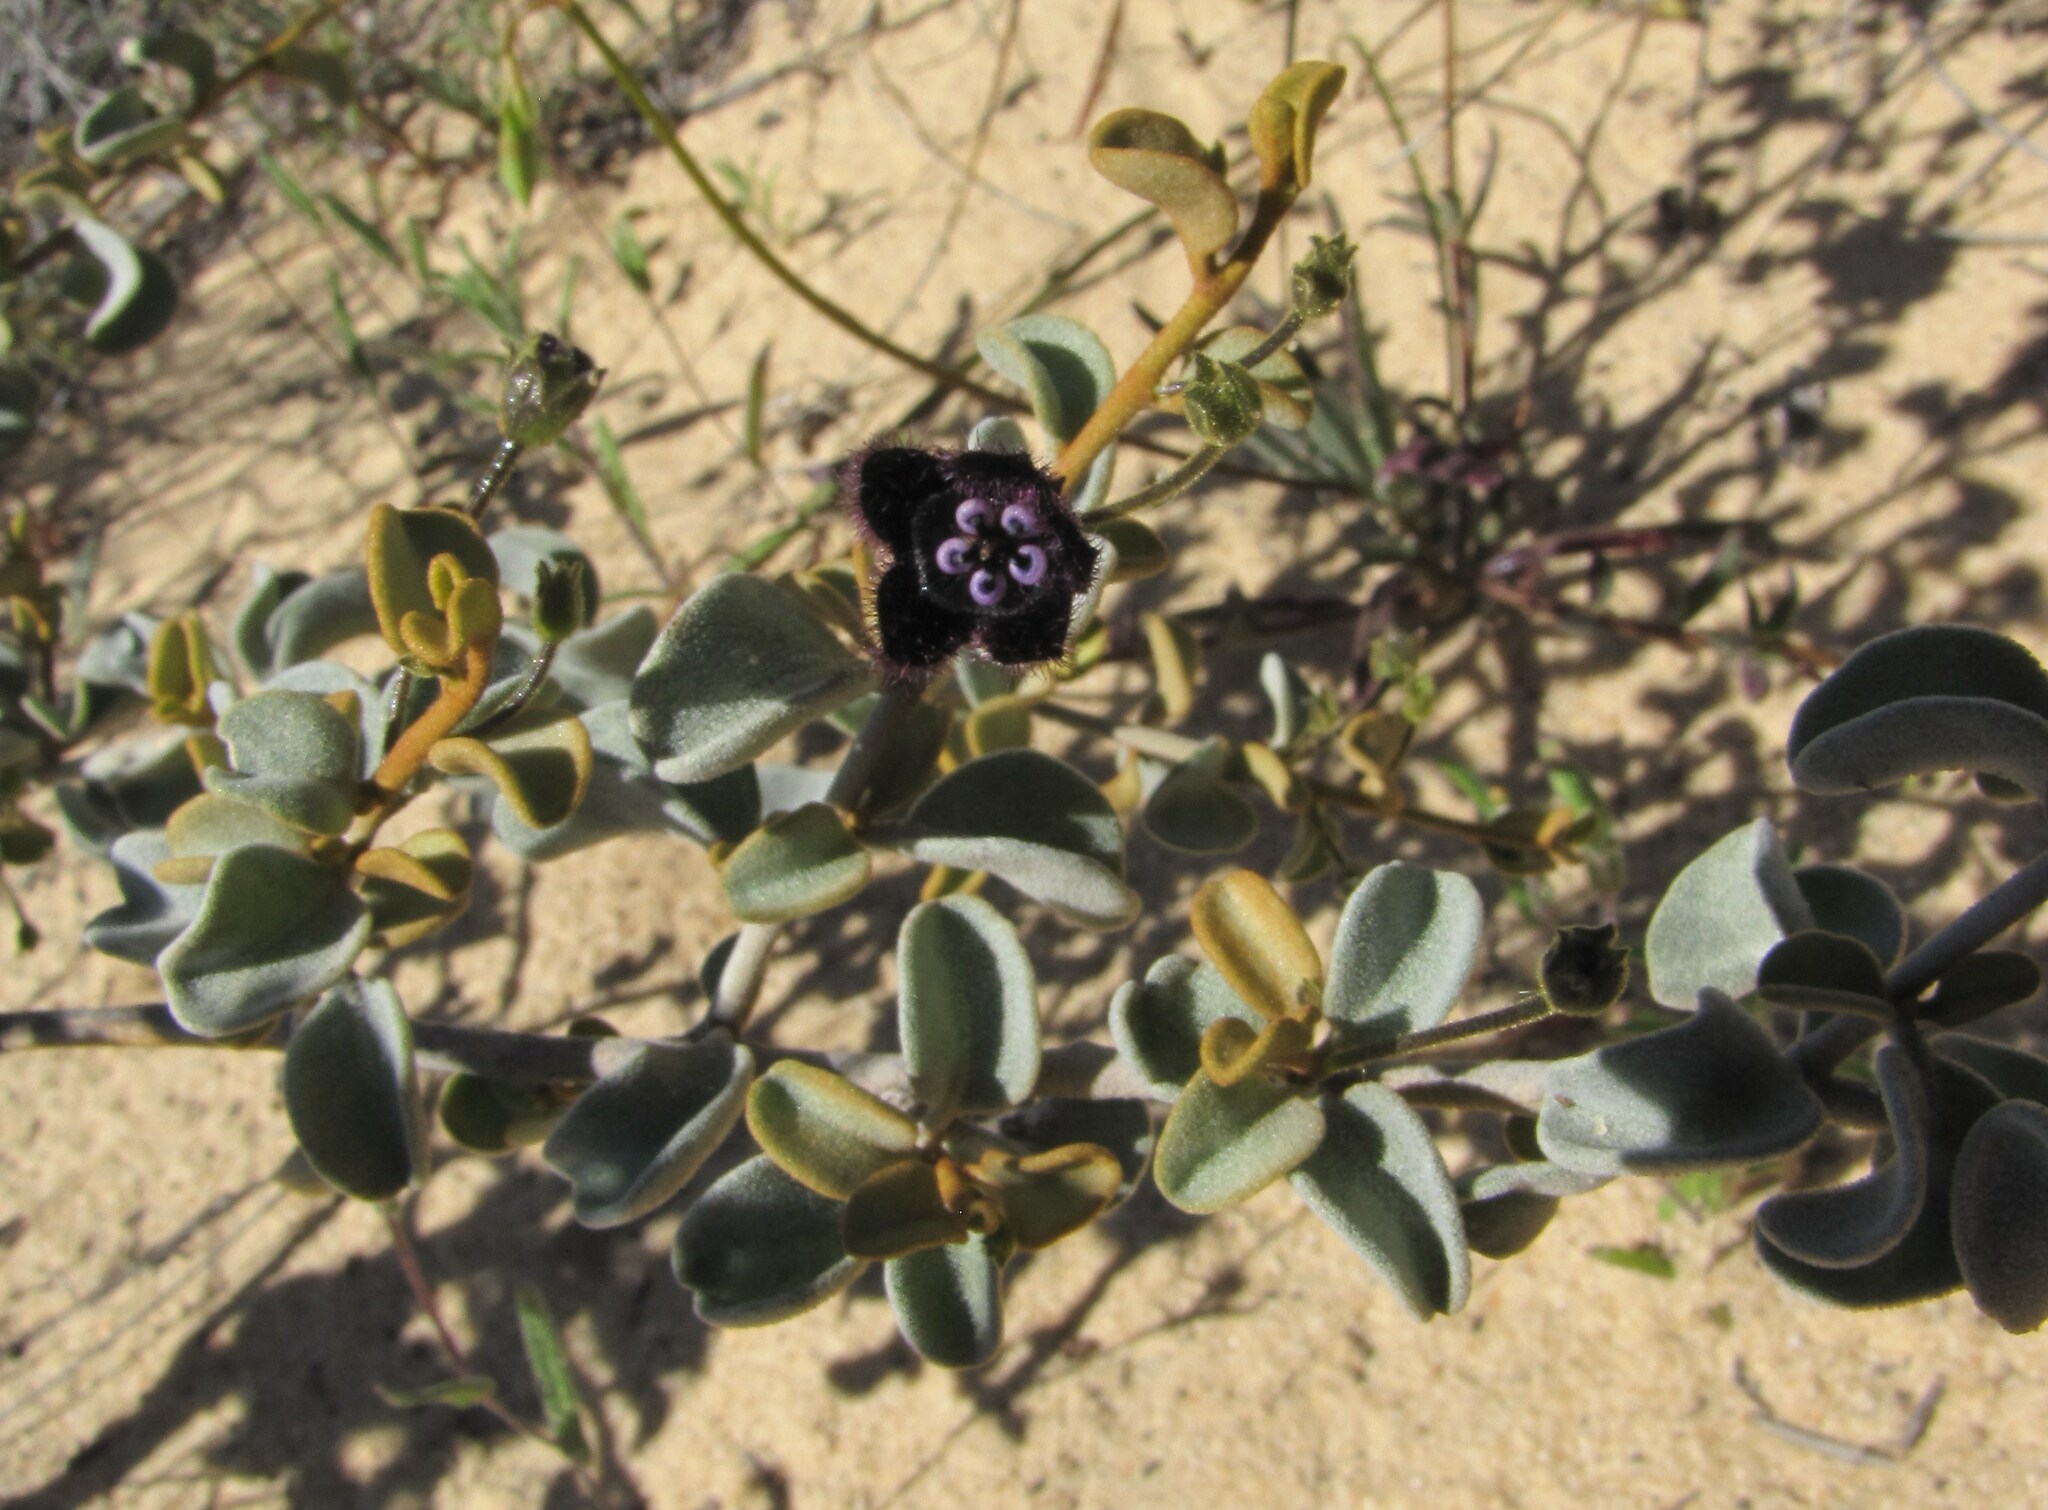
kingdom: Plantae
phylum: Tracheophyta
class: Magnoliopsida
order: Solanales
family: Solanaceae
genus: Anthotroche
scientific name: Anthotroche walcottii
